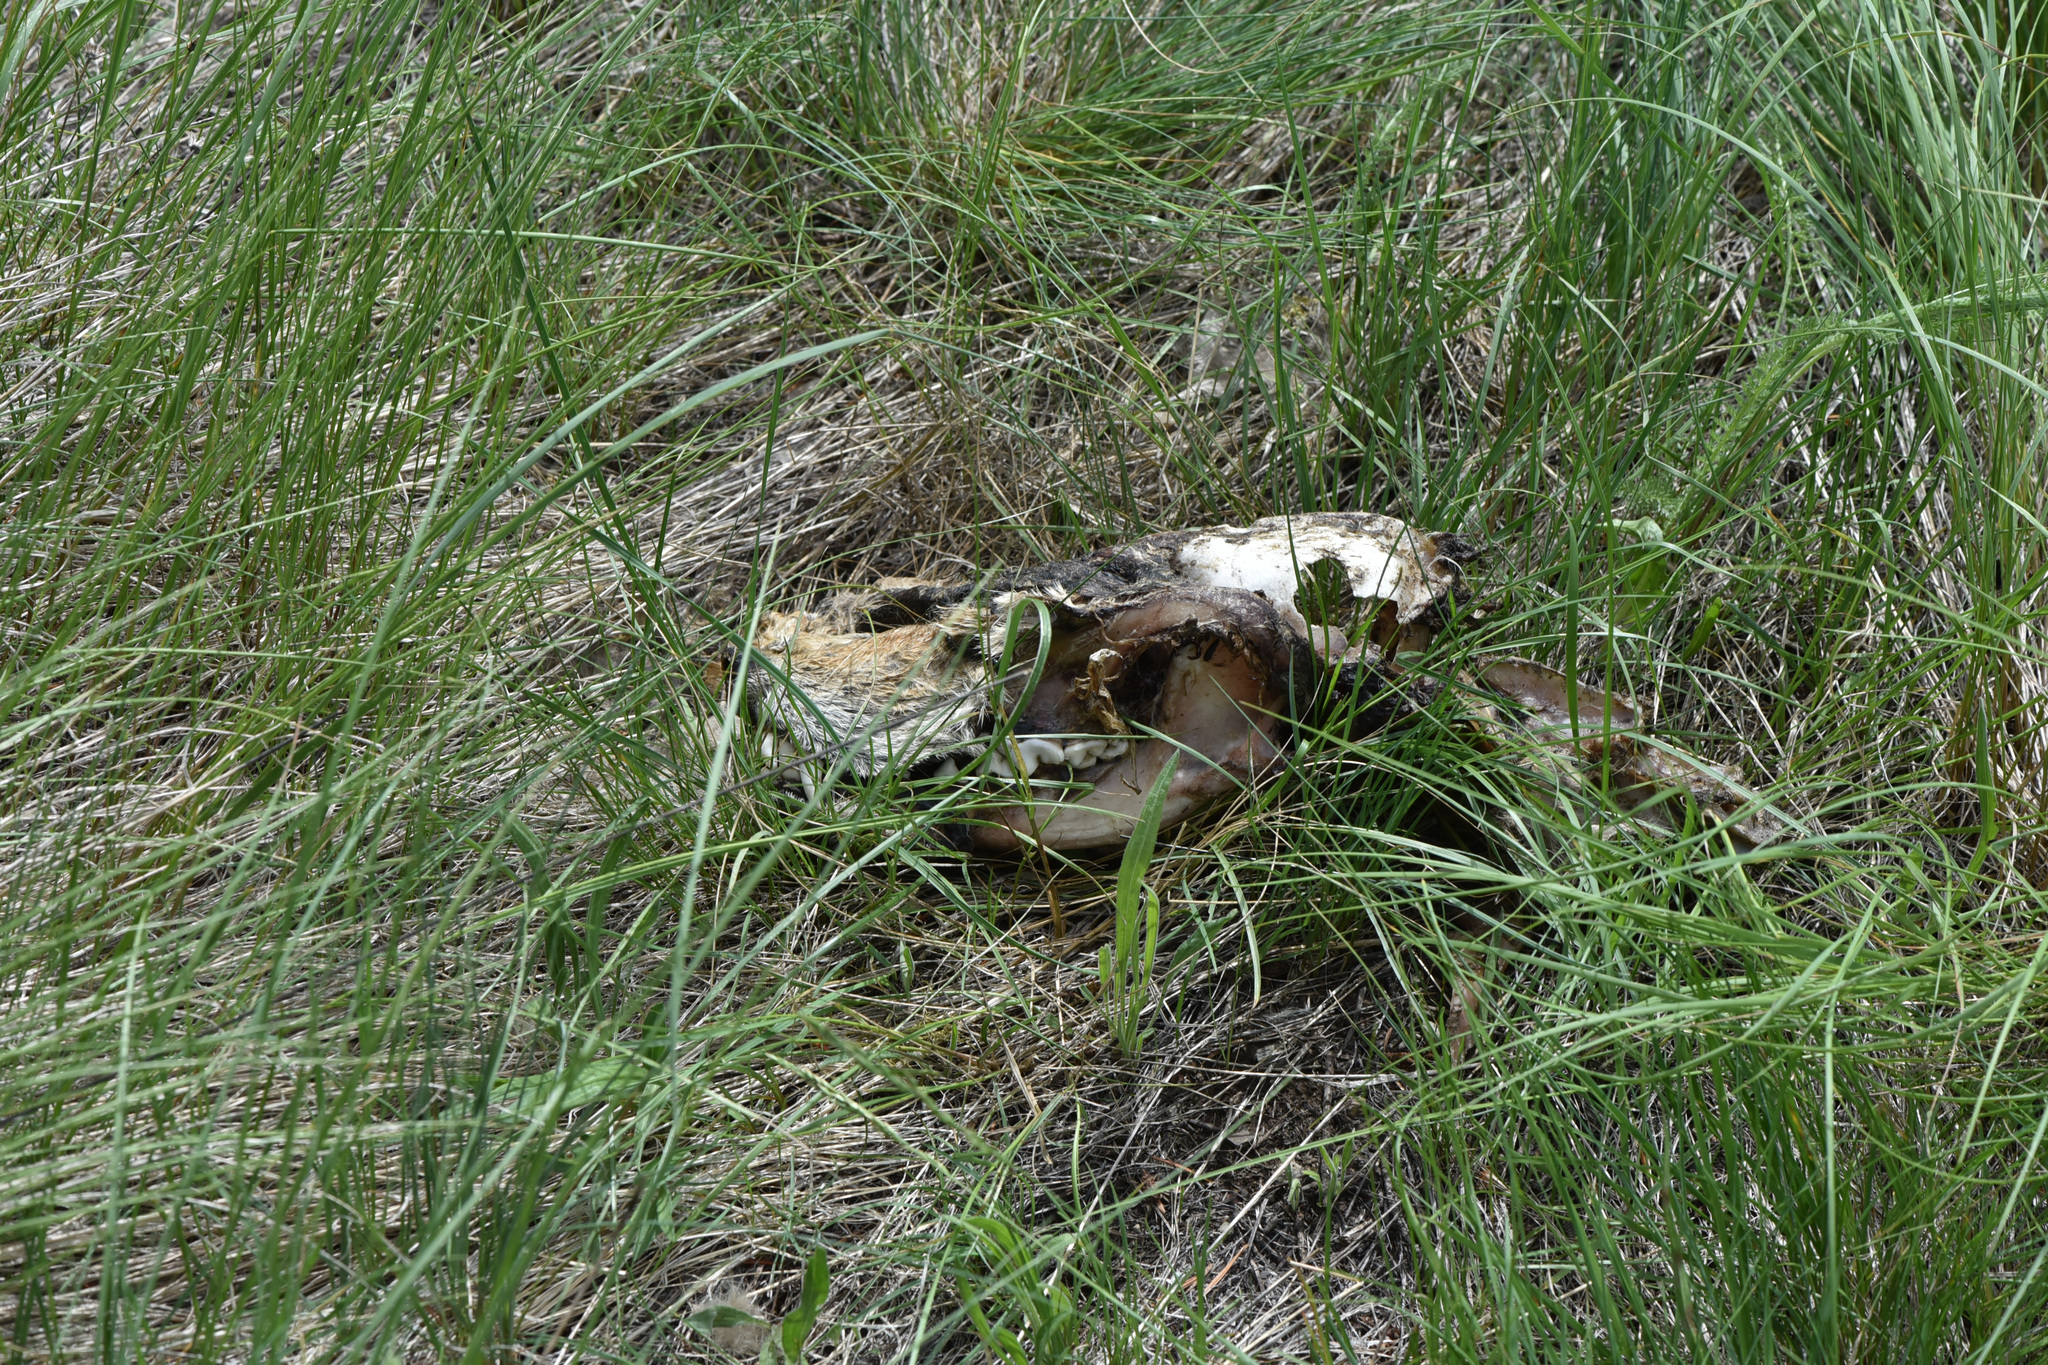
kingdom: Animalia
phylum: Chordata
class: Mammalia
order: Carnivora
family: Canidae
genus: Canis
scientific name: Canis latrans
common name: Coyote
